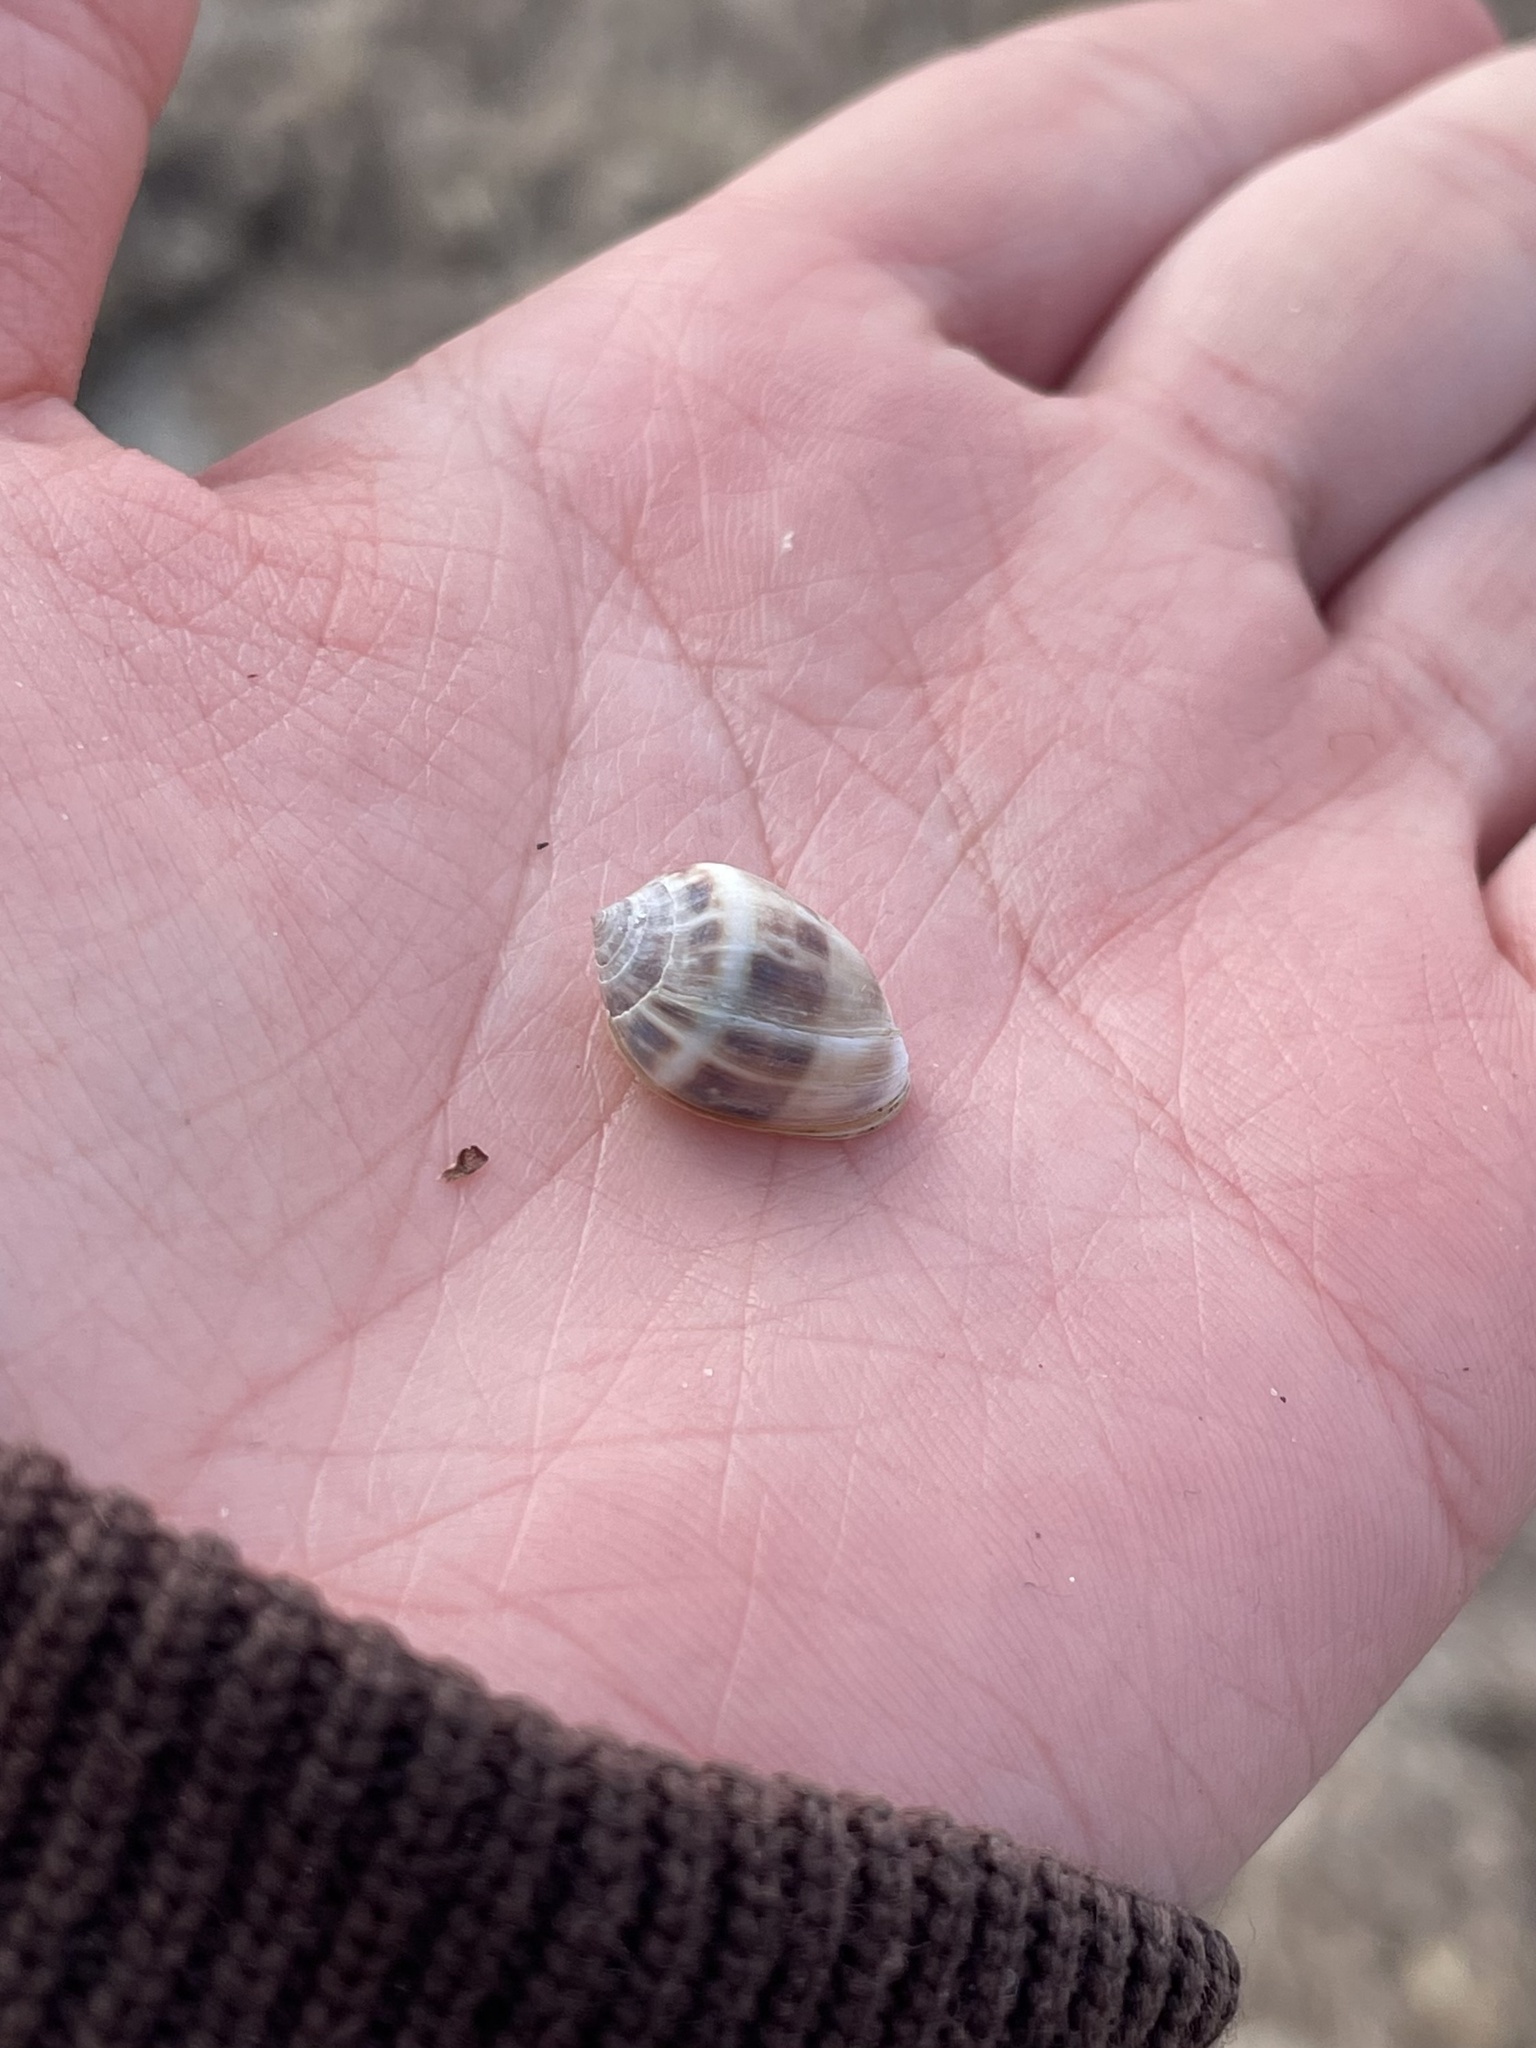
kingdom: Animalia
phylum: Mollusca
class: Gastropoda
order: Ellobiida
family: Ellobiidae
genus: Melampus
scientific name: Melampus bidentatus
